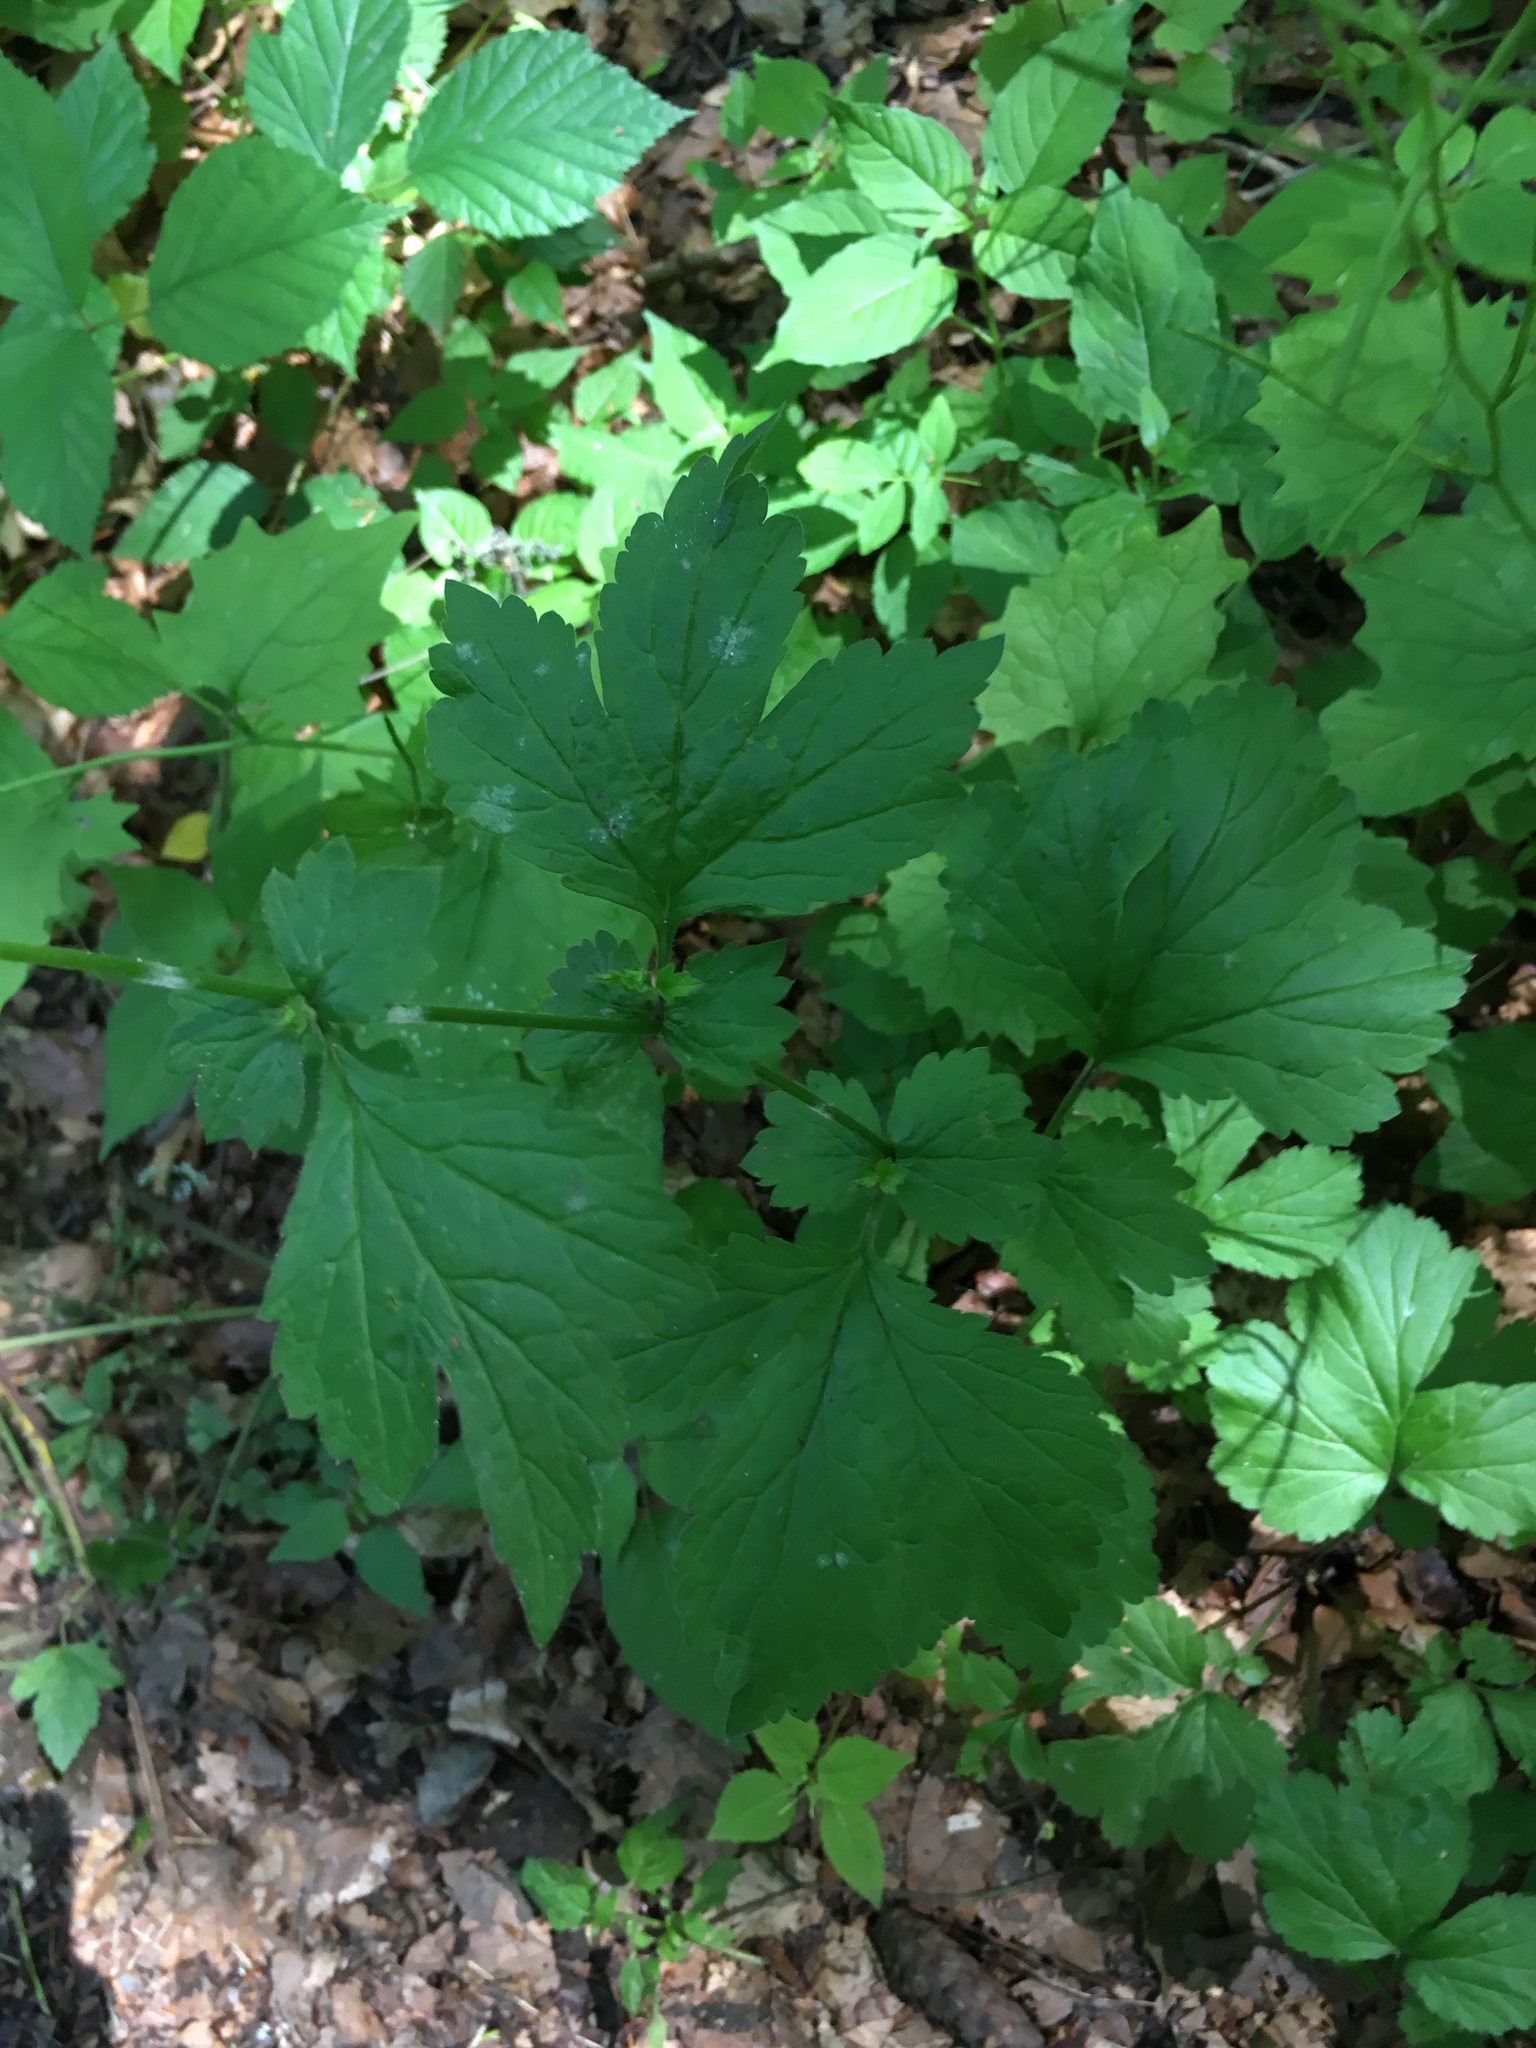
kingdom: Plantae
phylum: Tracheophyta
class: Magnoliopsida
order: Rosales
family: Rosaceae
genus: Geum
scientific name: Geum urbanum
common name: Wood avens
